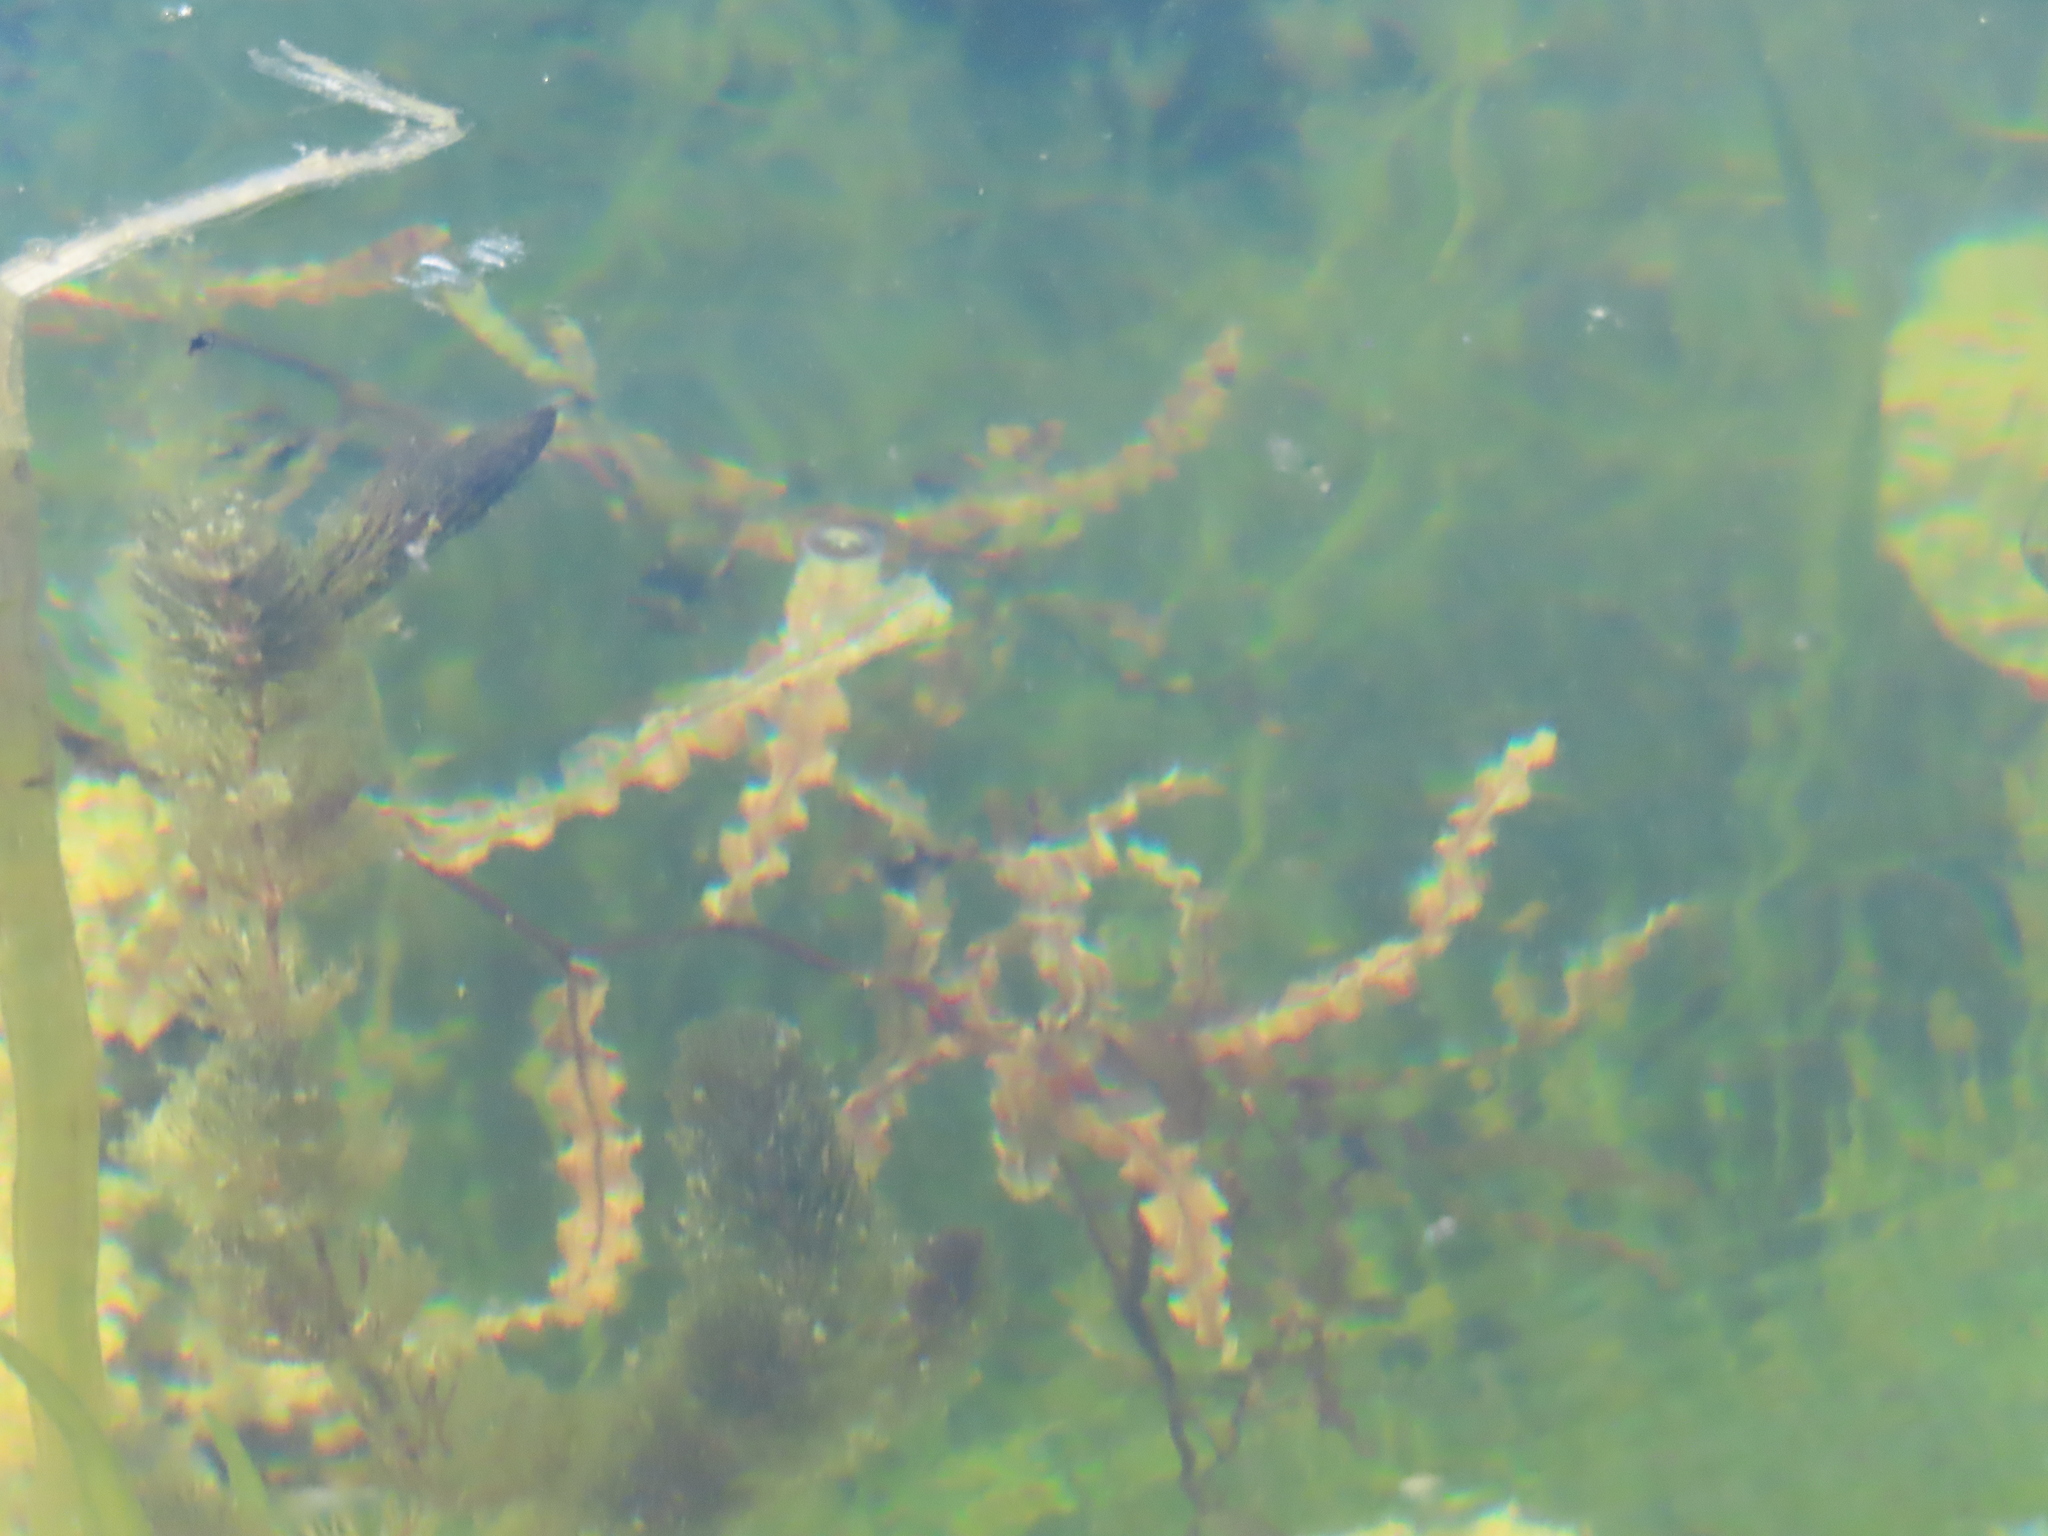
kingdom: Plantae
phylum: Tracheophyta
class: Liliopsida
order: Alismatales
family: Potamogetonaceae
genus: Potamogeton
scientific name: Potamogeton crispus
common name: Curled pondweed
